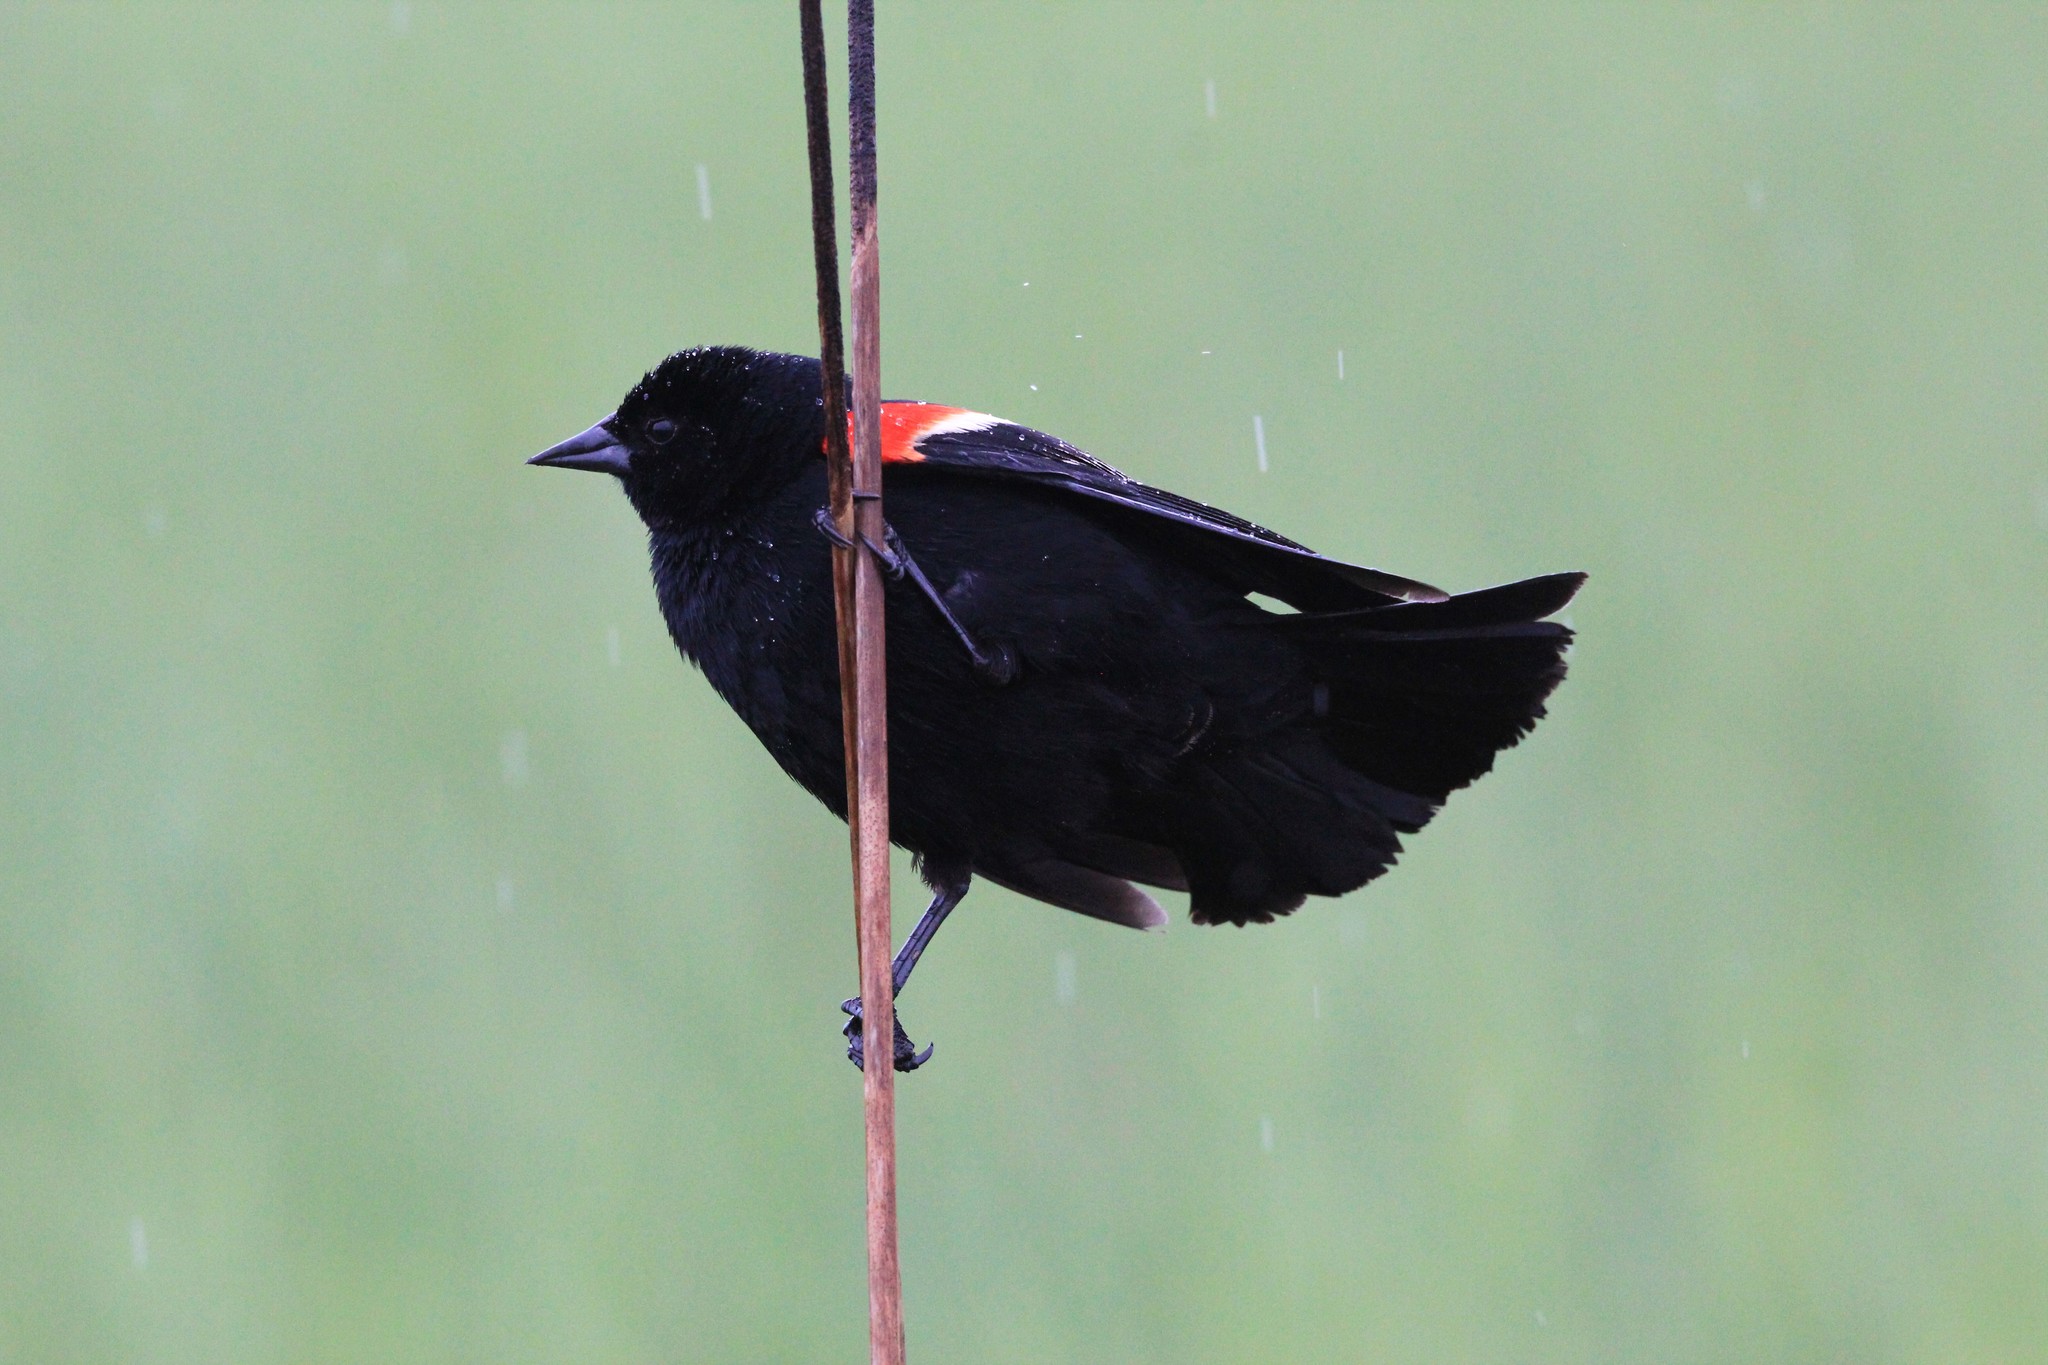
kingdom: Animalia
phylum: Chordata
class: Aves
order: Passeriformes
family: Icteridae
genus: Agelaius
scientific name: Agelaius phoeniceus
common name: Red-winged blackbird
